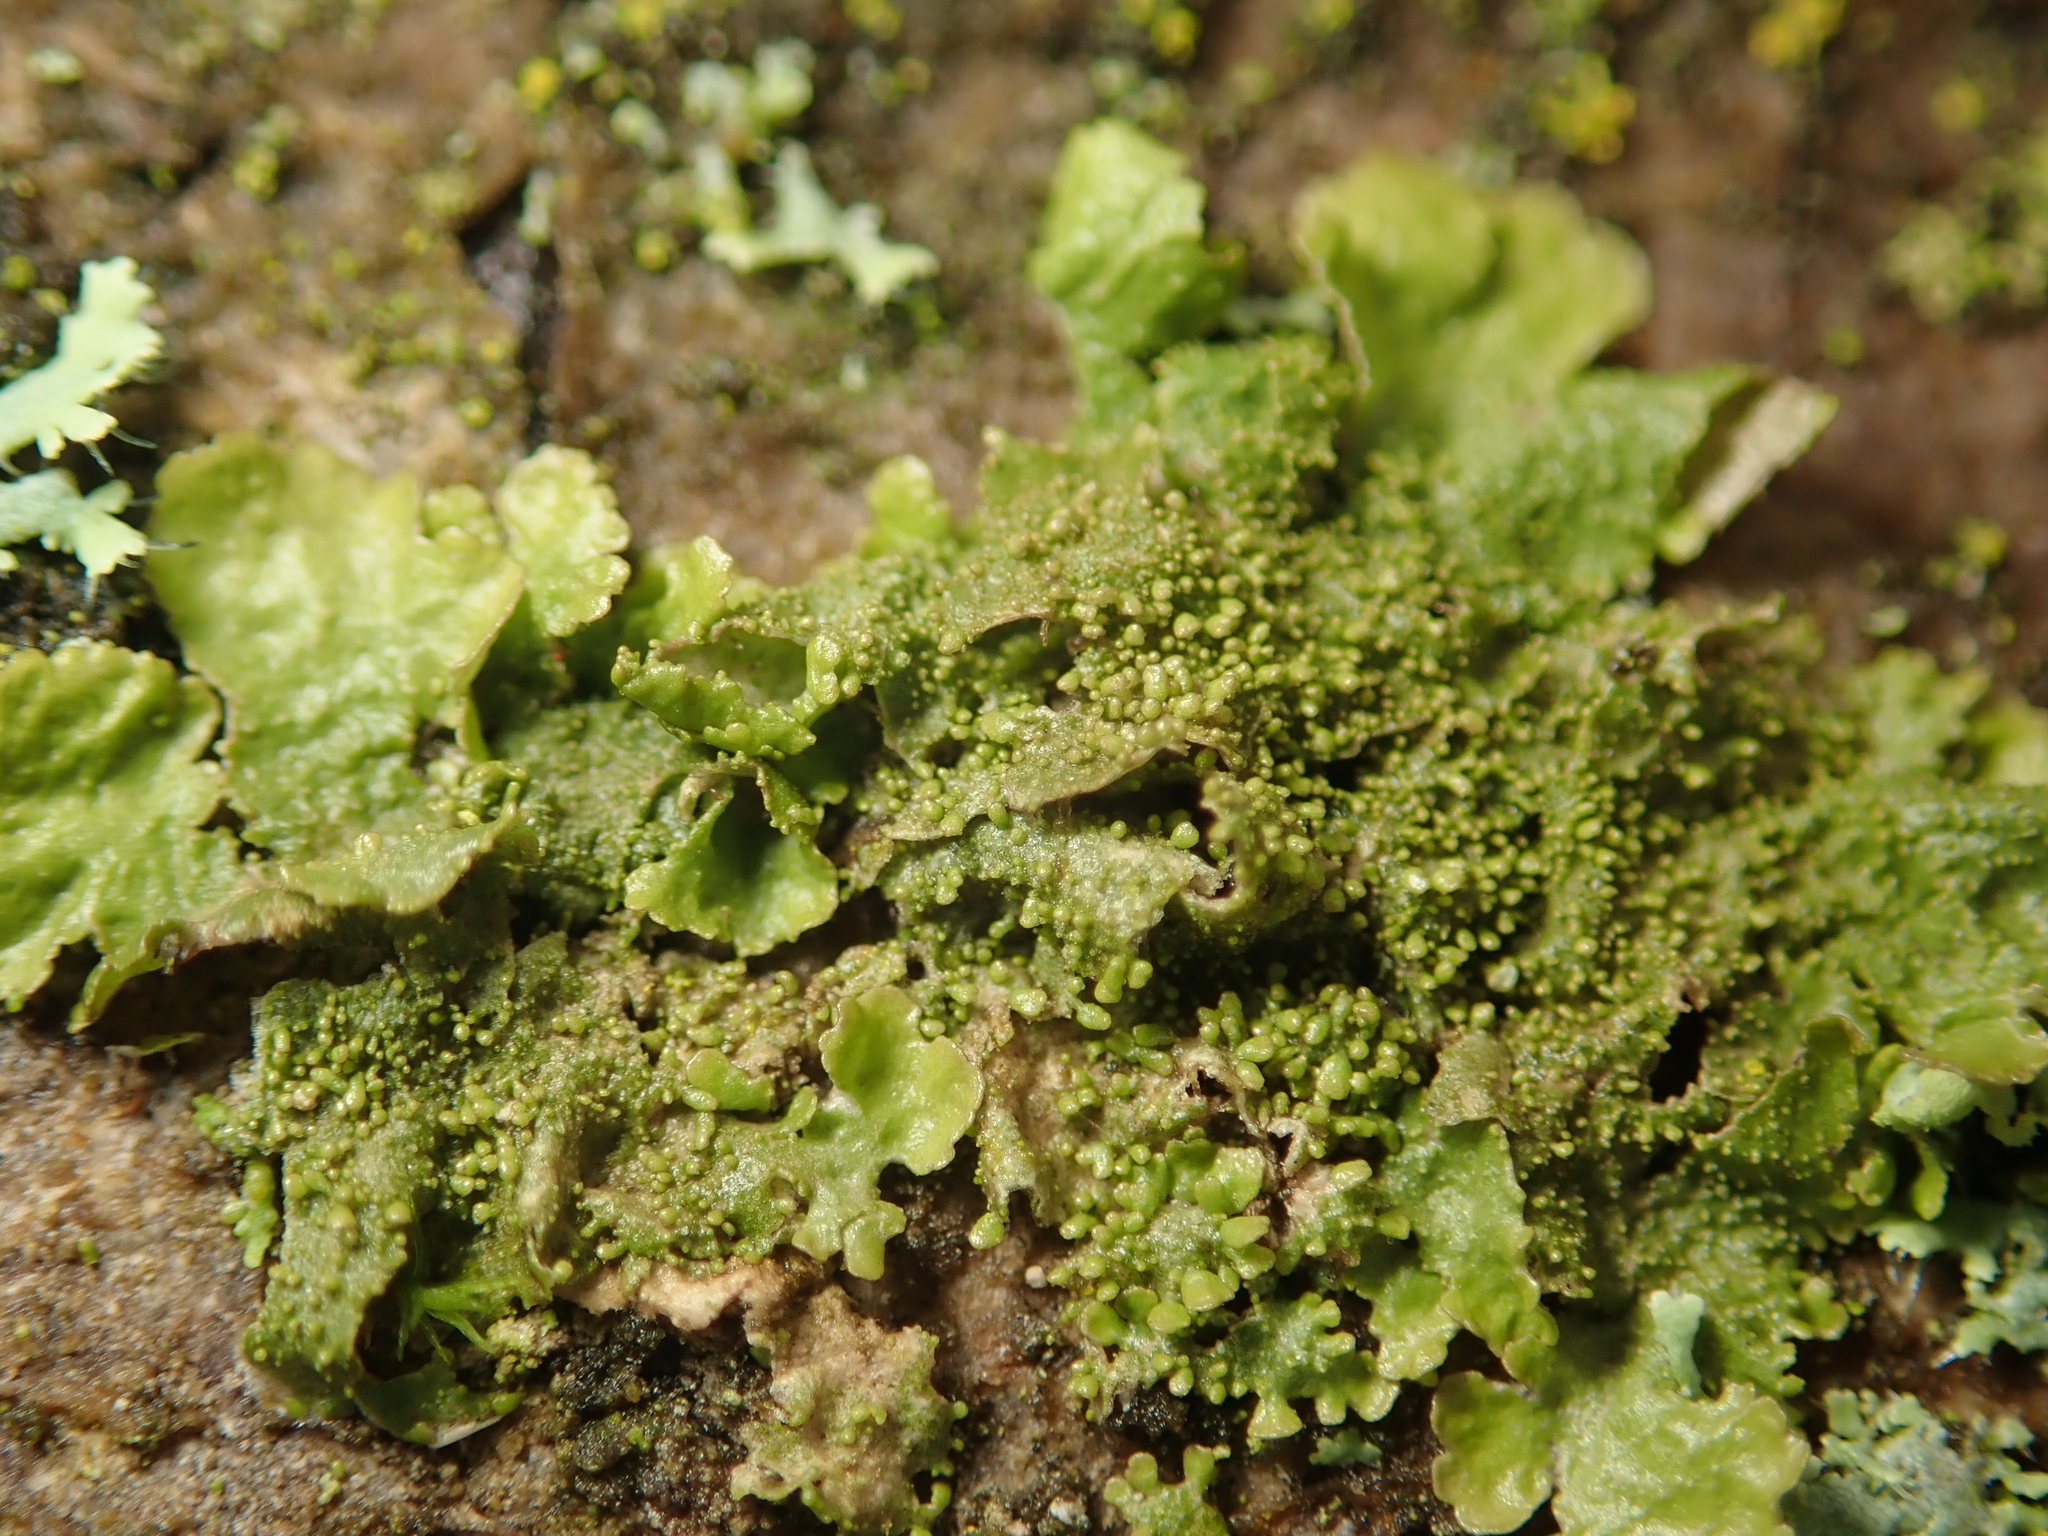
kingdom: Fungi
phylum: Ascomycota
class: Lecanoromycetes
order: Lecanorales
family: Parmeliaceae
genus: Melanohalea
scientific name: Melanohalea exasperatula
